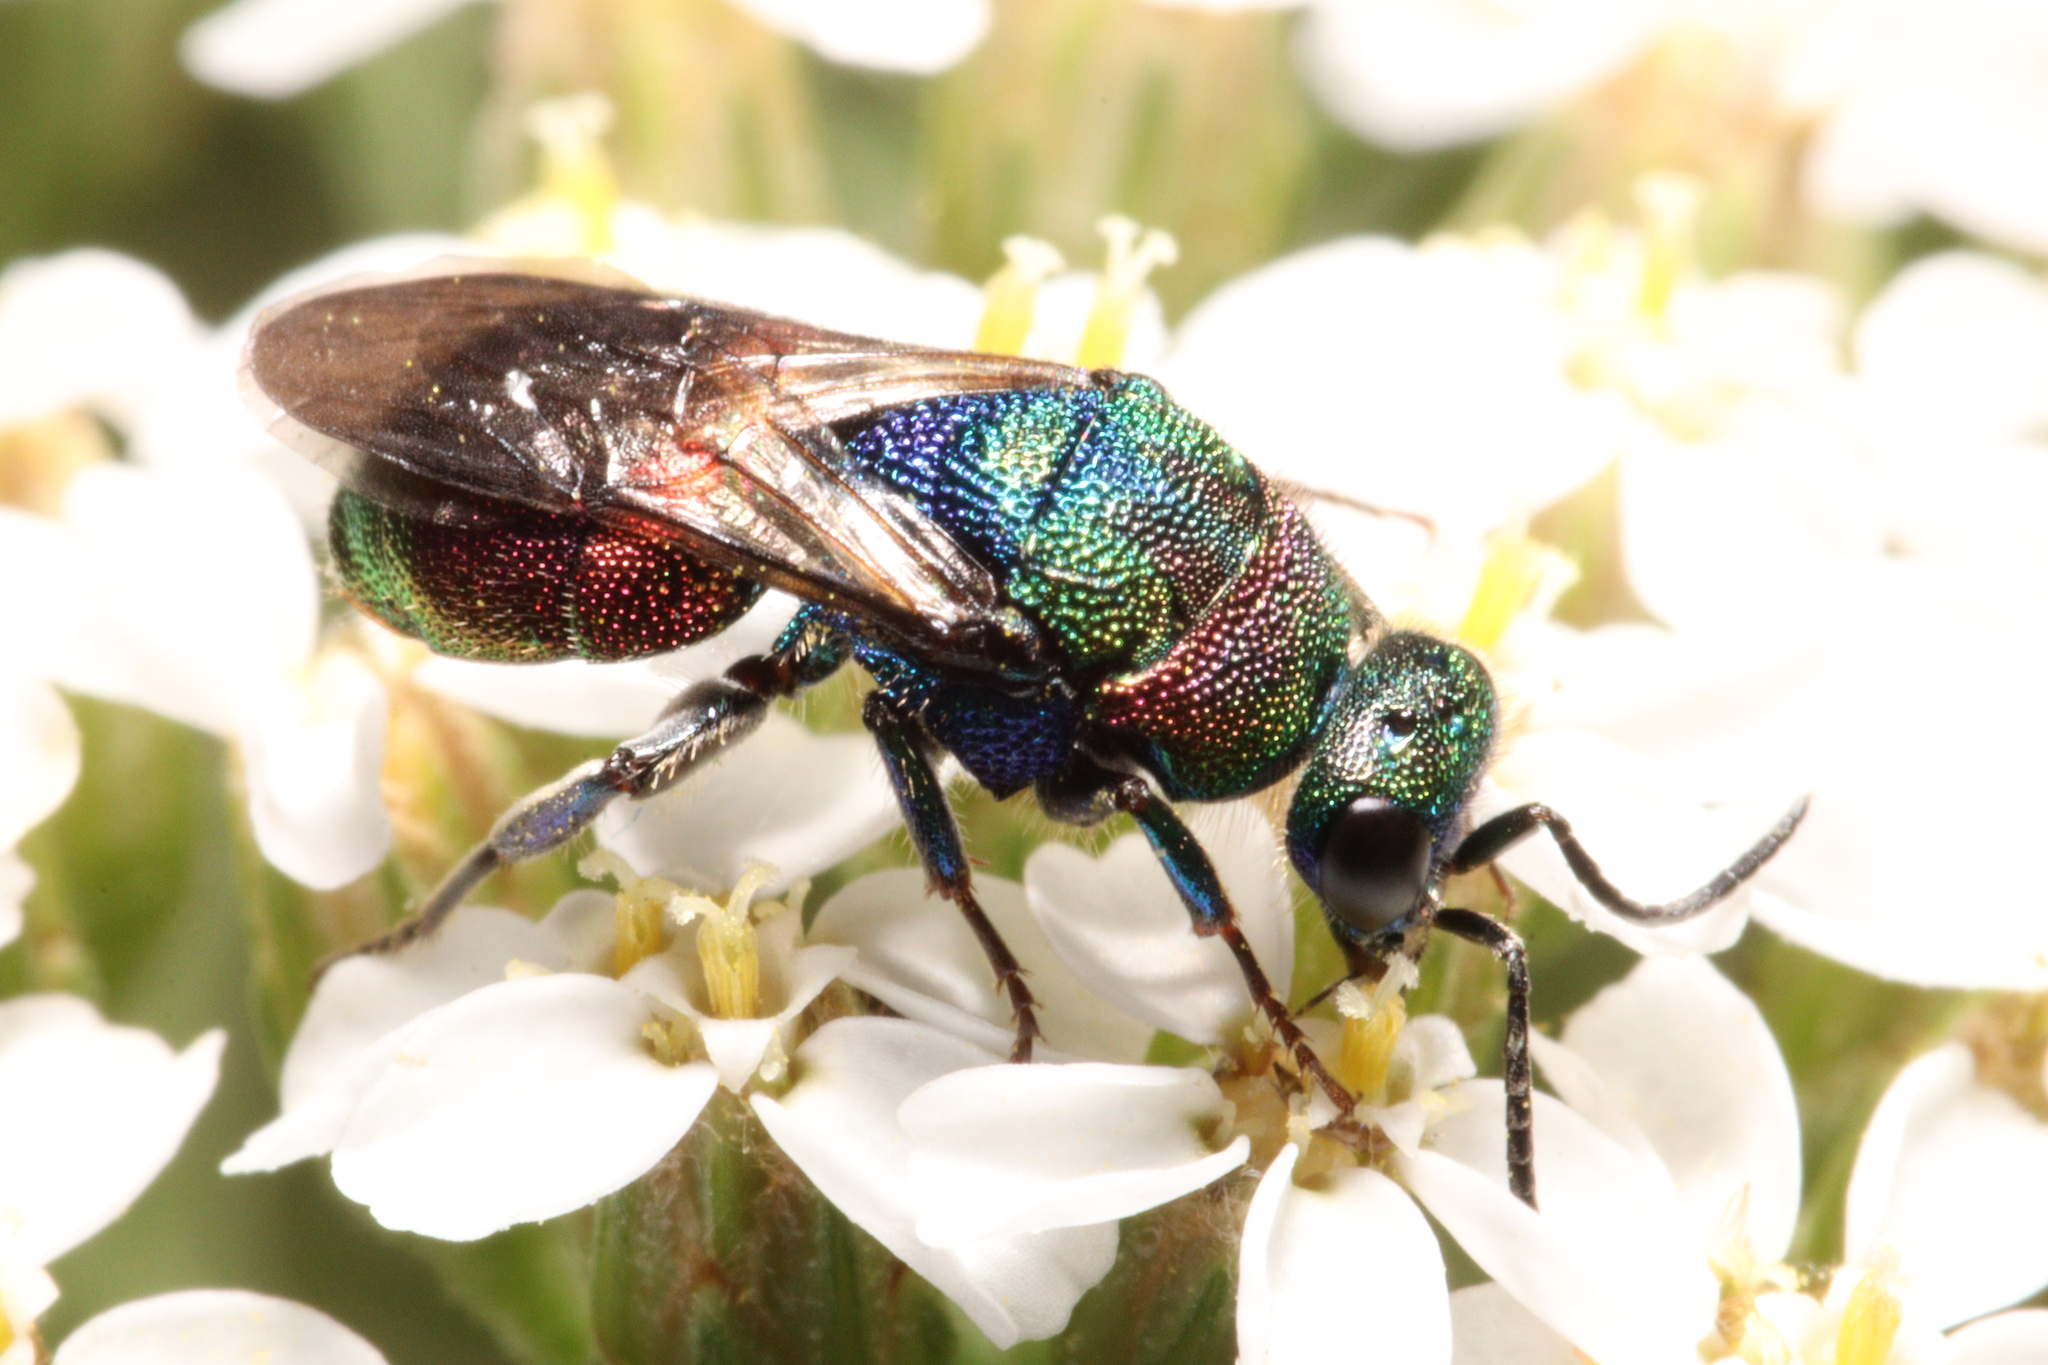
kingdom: Animalia
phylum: Arthropoda
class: Insecta
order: Hymenoptera
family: Chrysididae
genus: Hedychrum
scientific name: Hedychrum rutilans
